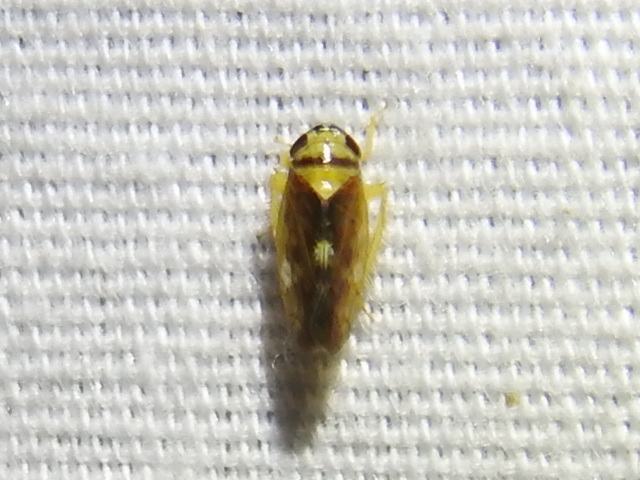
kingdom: Animalia
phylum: Arthropoda
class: Insecta
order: Hemiptera
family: Cicadellidae
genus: Eutettix
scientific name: Eutettix pictus
